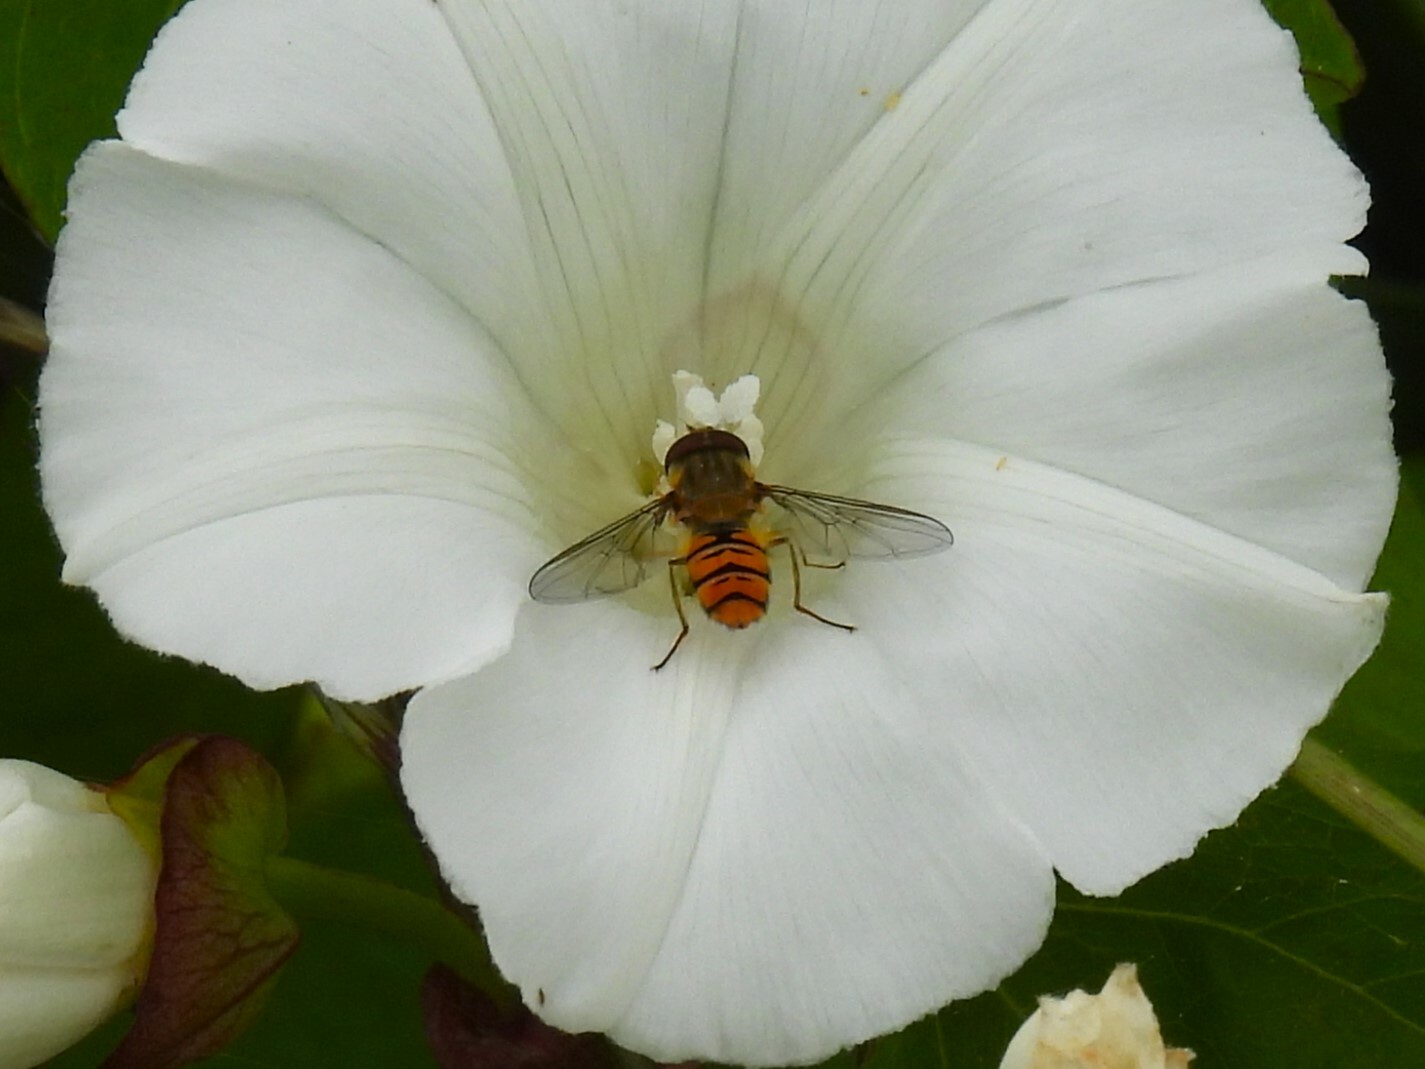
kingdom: Animalia
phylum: Arthropoda
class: Insecta
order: Diptera
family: Syrphidae
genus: Episyrphus
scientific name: Episyrphus balteatus
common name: Marmalade hoverfly
